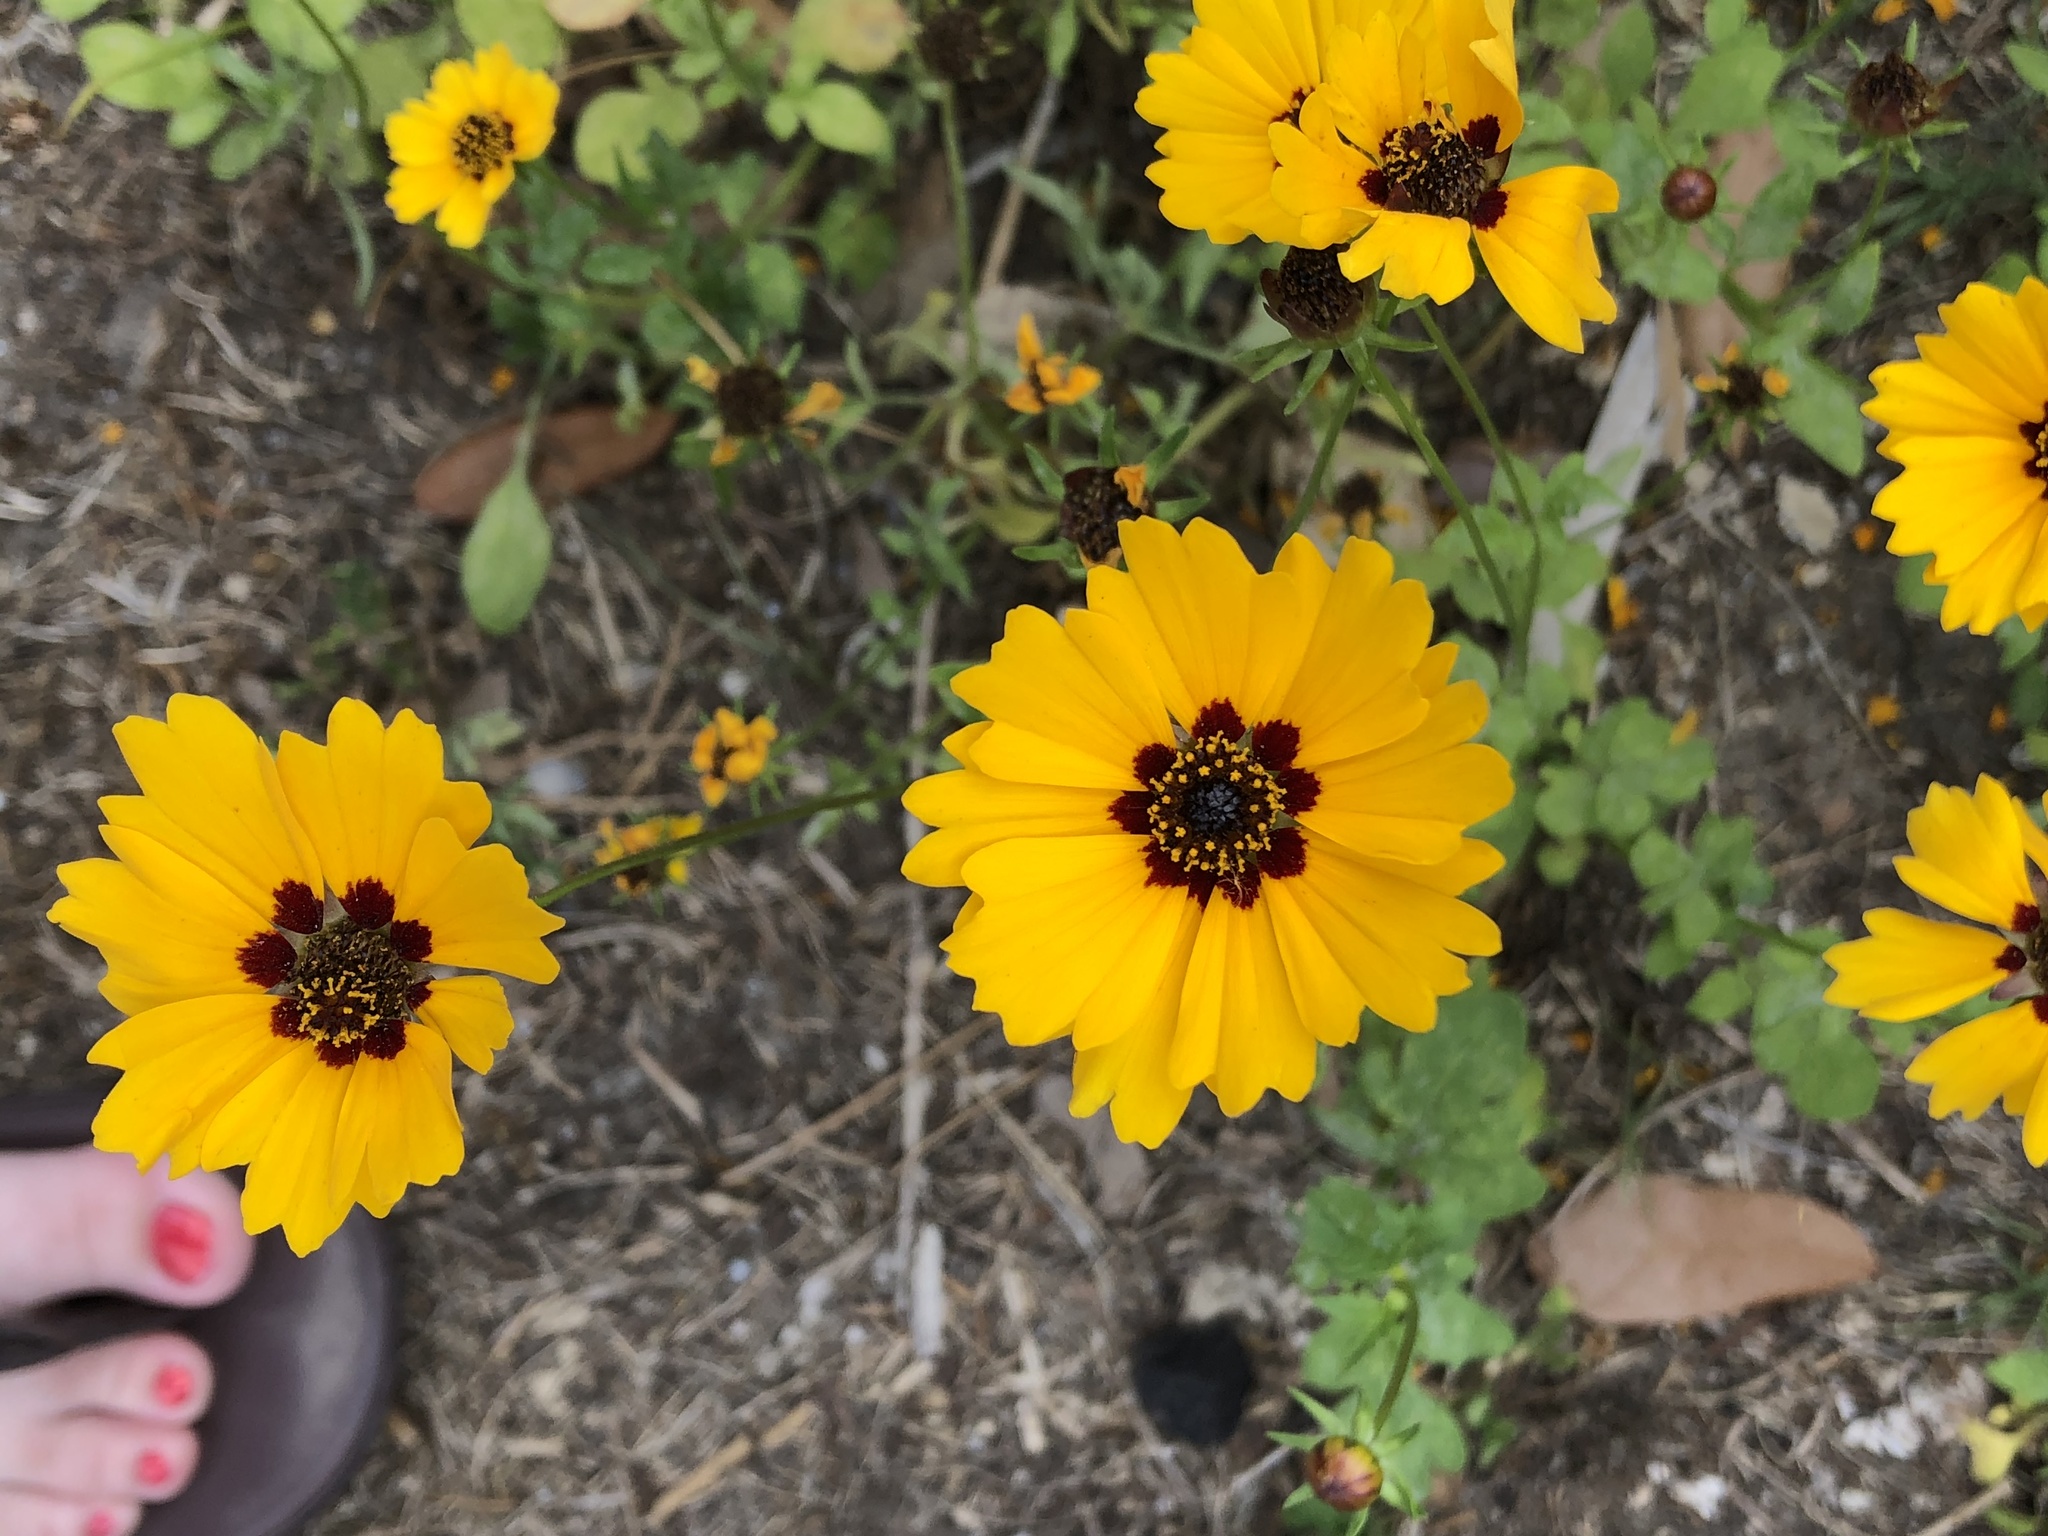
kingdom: Plantae
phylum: Tracheophyta
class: Magnoliopsida
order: Asterales
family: Asteraceae
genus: Coreopsis
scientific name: Coreopsis basalis
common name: Golden-mane coreopsis
